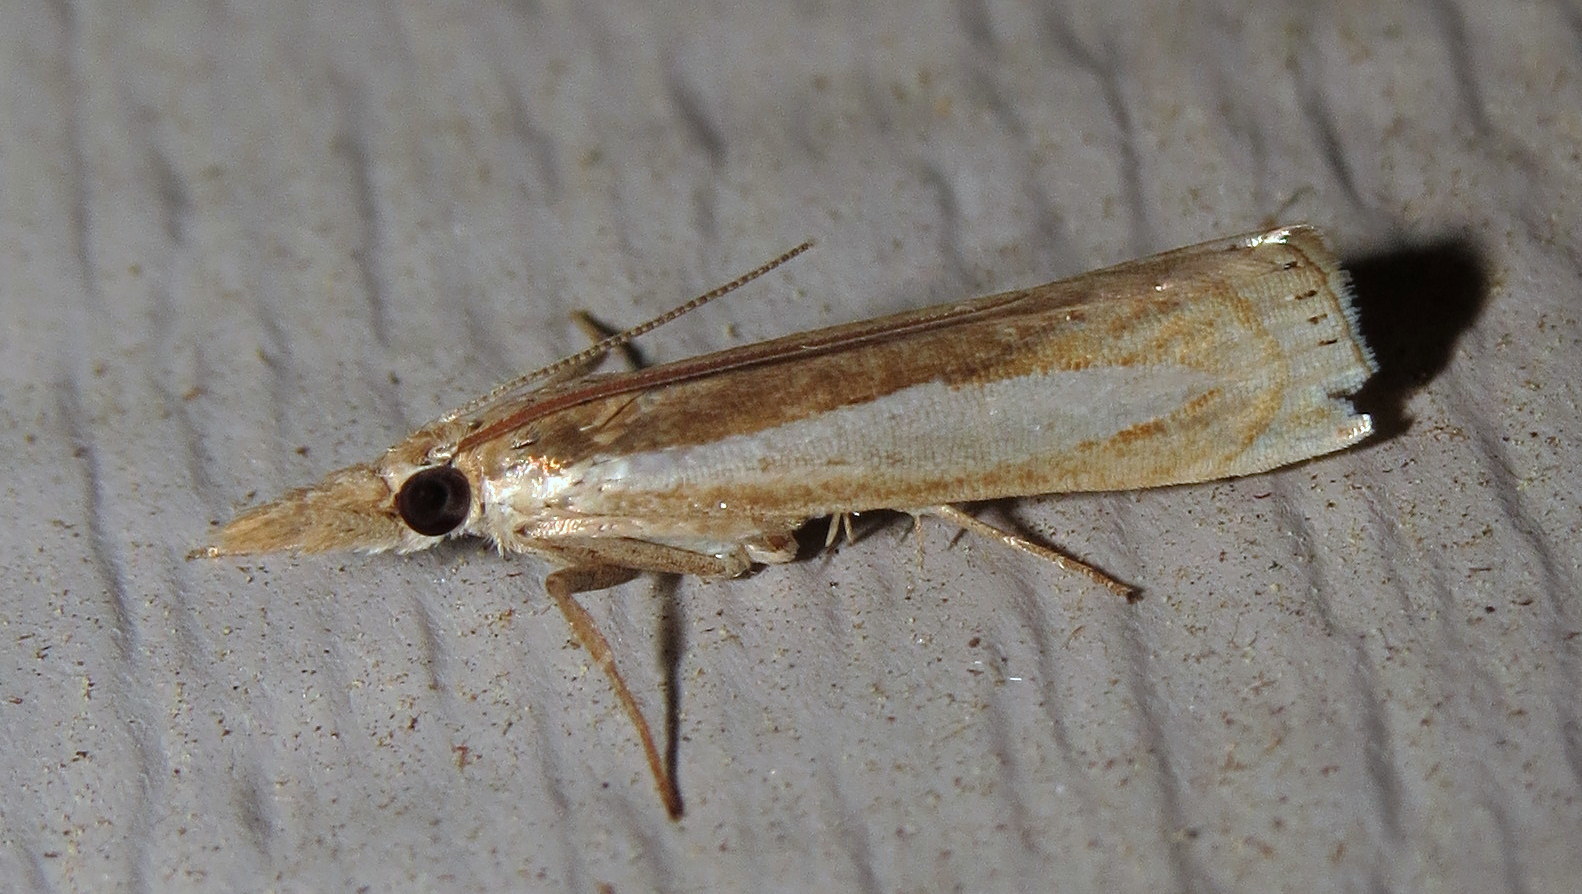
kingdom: Animalia
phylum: Arthropoda
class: Insecta
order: Lepidoptera
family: Crambidae
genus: Crambus
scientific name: Crambus praefectellus
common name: Common grass-veneer
